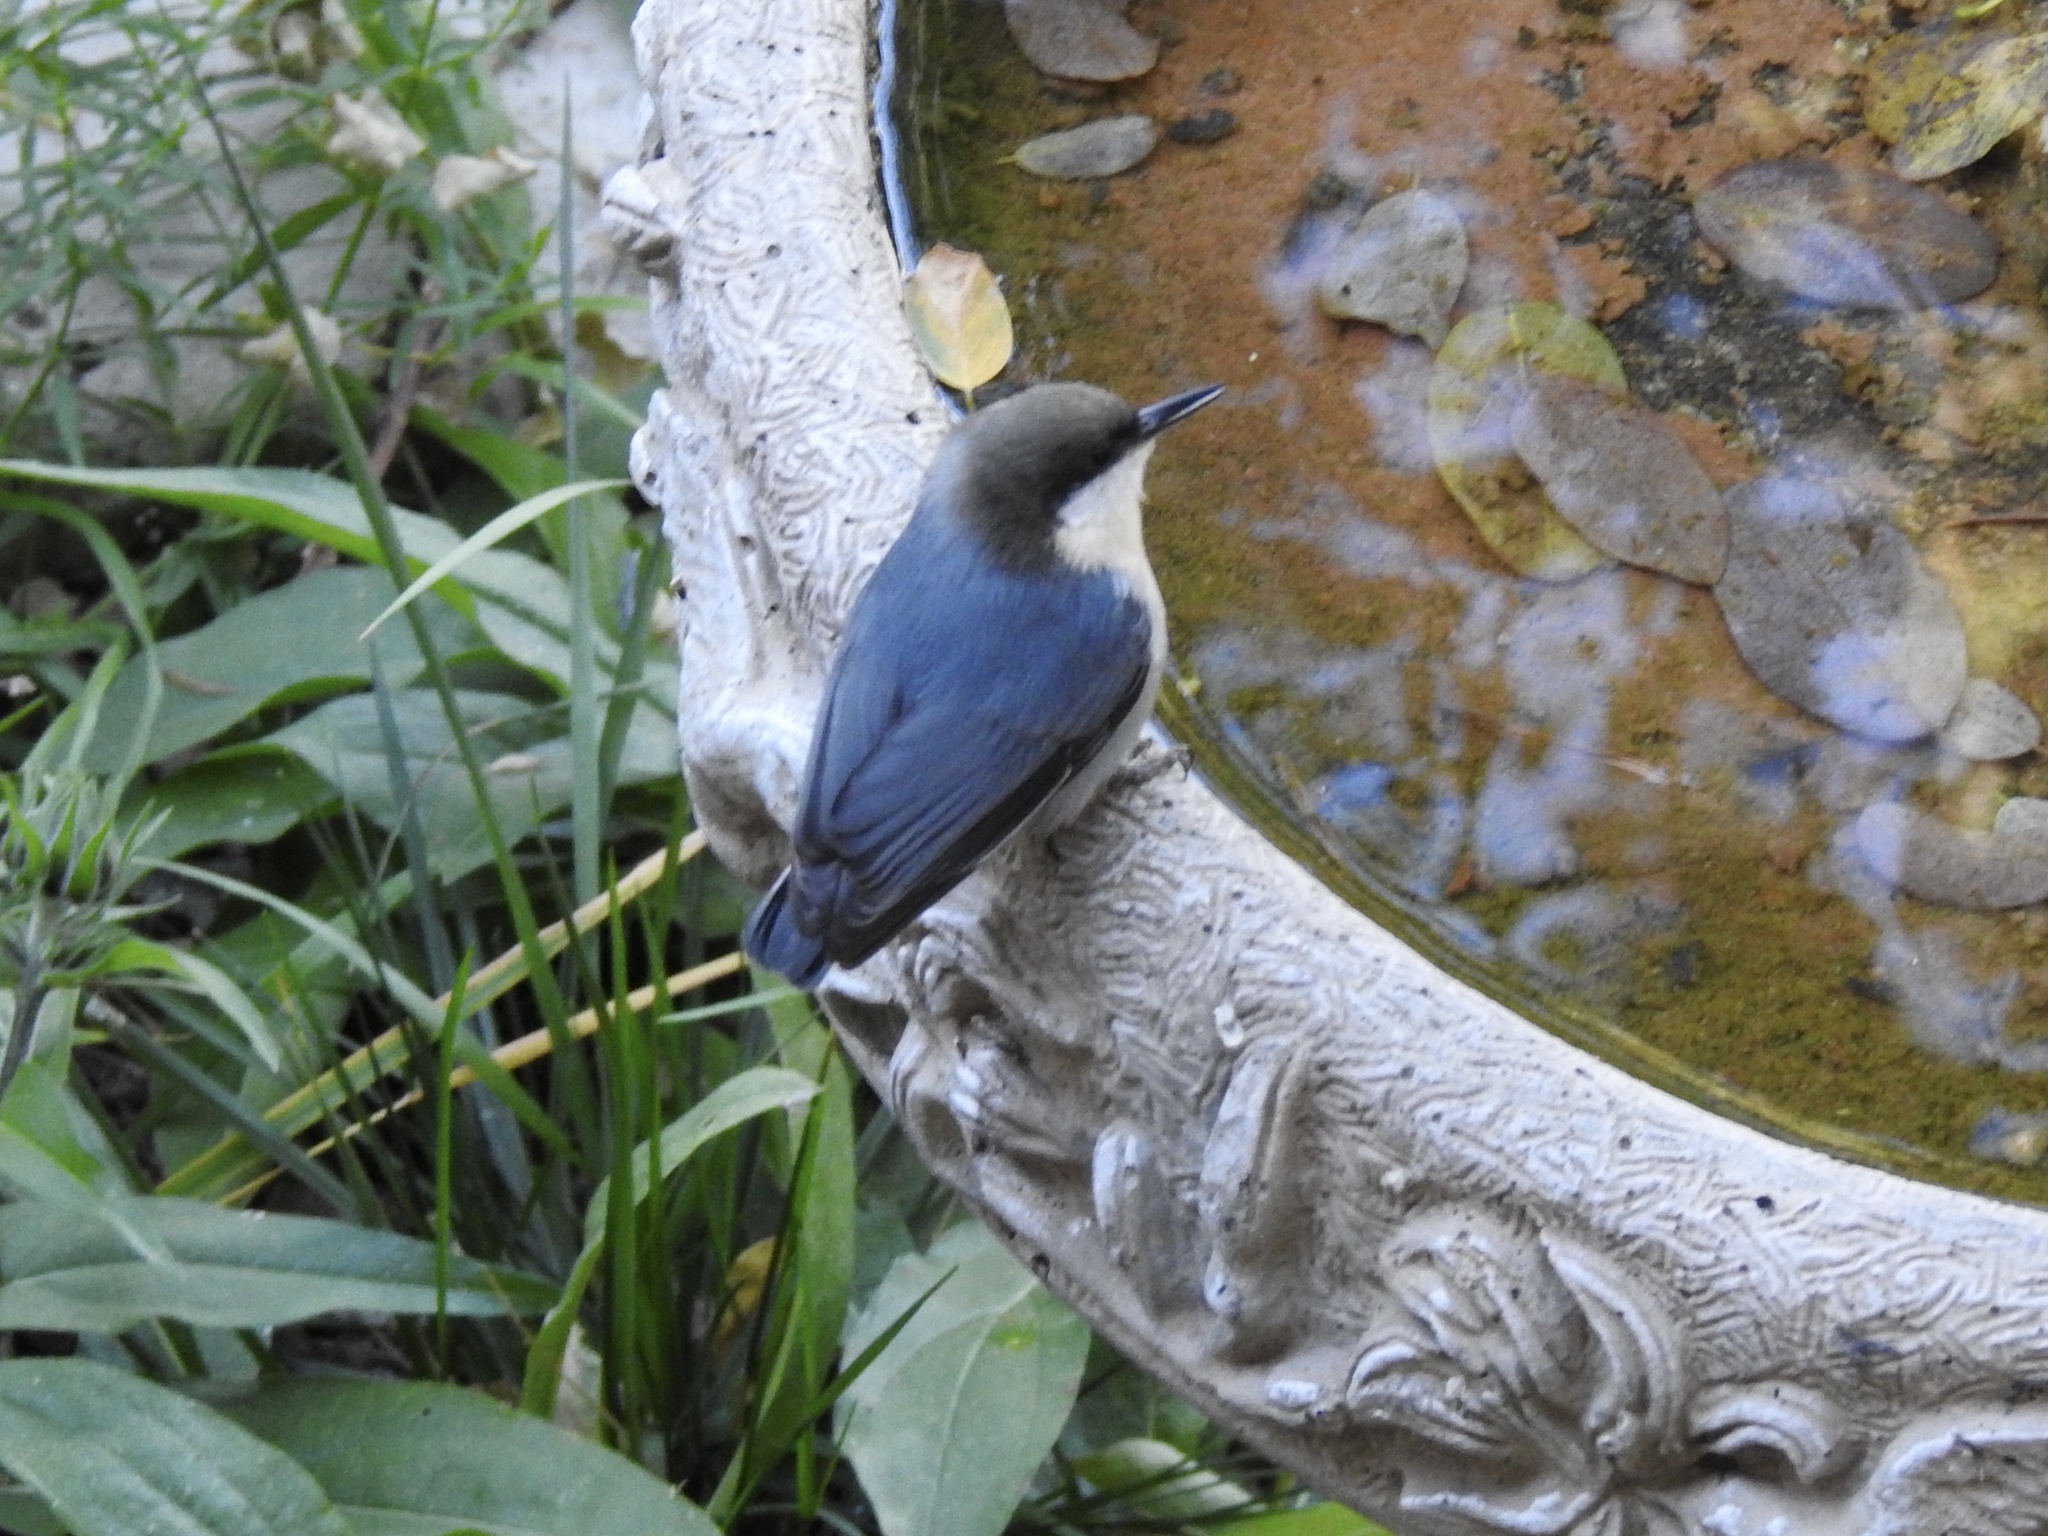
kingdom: Animalia
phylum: Chordata
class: Aves
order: Passeriformes
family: Sittidae
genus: Sitta
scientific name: Sitta pygmaea
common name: Pygmy nuthatch
